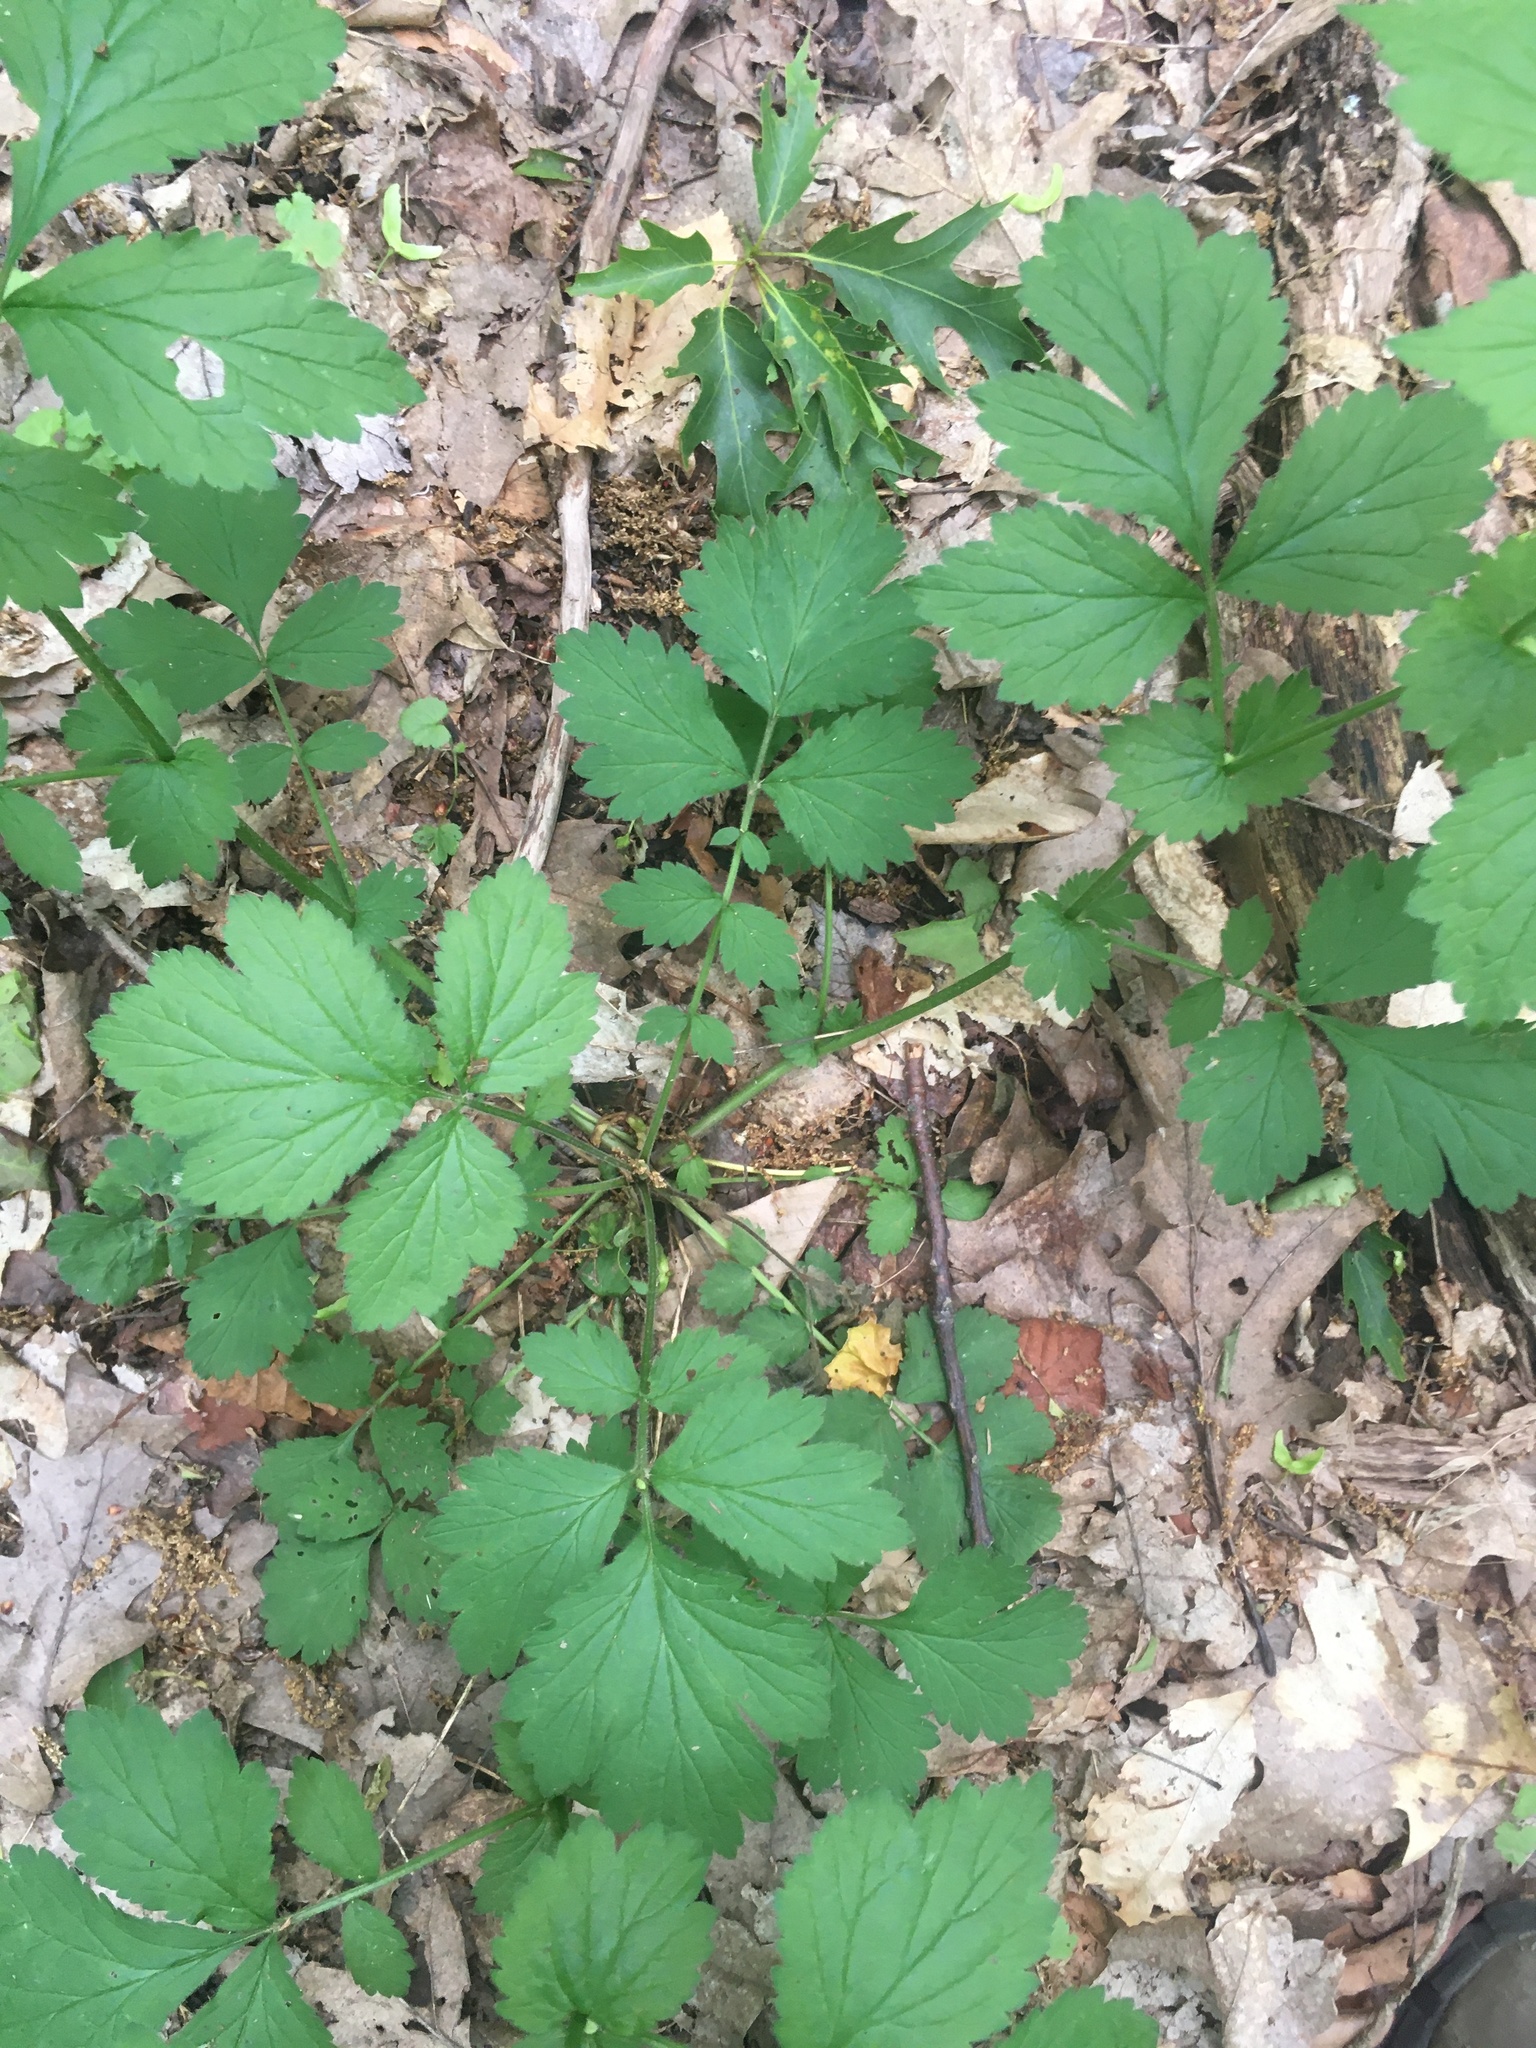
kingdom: Plantae
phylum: Tracheophyta
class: Magnoliopsida
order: Rosales
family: Rosaceae
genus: Geum
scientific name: Geum urbanum
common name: Wood avens
